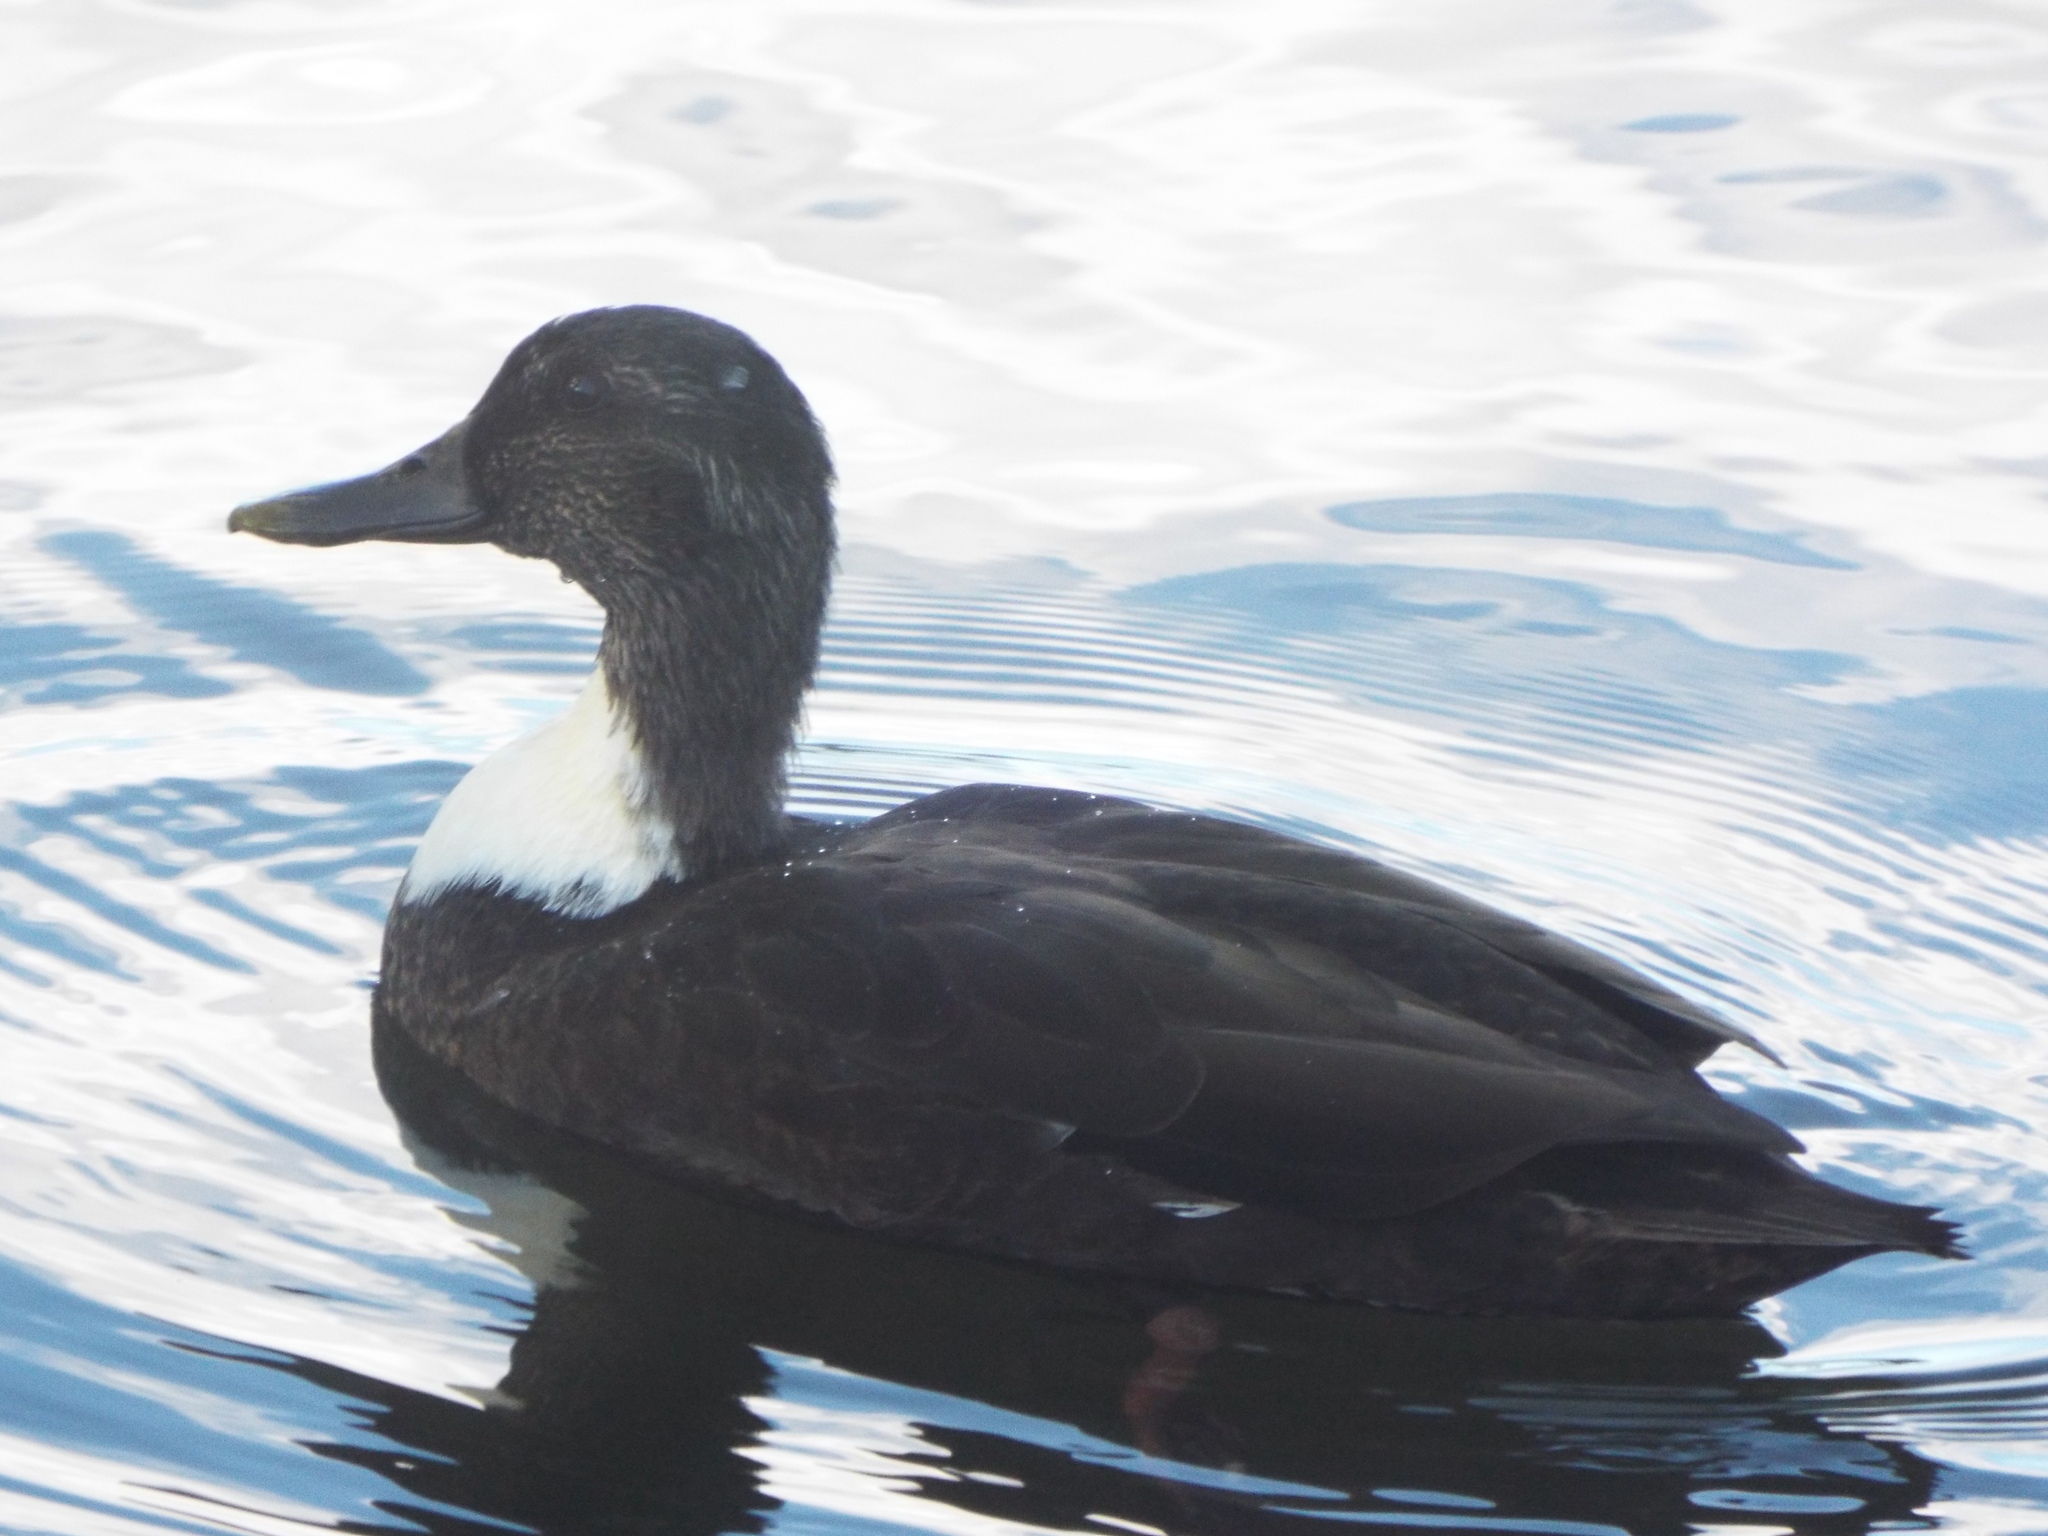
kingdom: Animalia
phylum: Chordata
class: Aves
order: Anseriformes
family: Anatidae
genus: Anas
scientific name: Anas platyrhynchos
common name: Mallard
